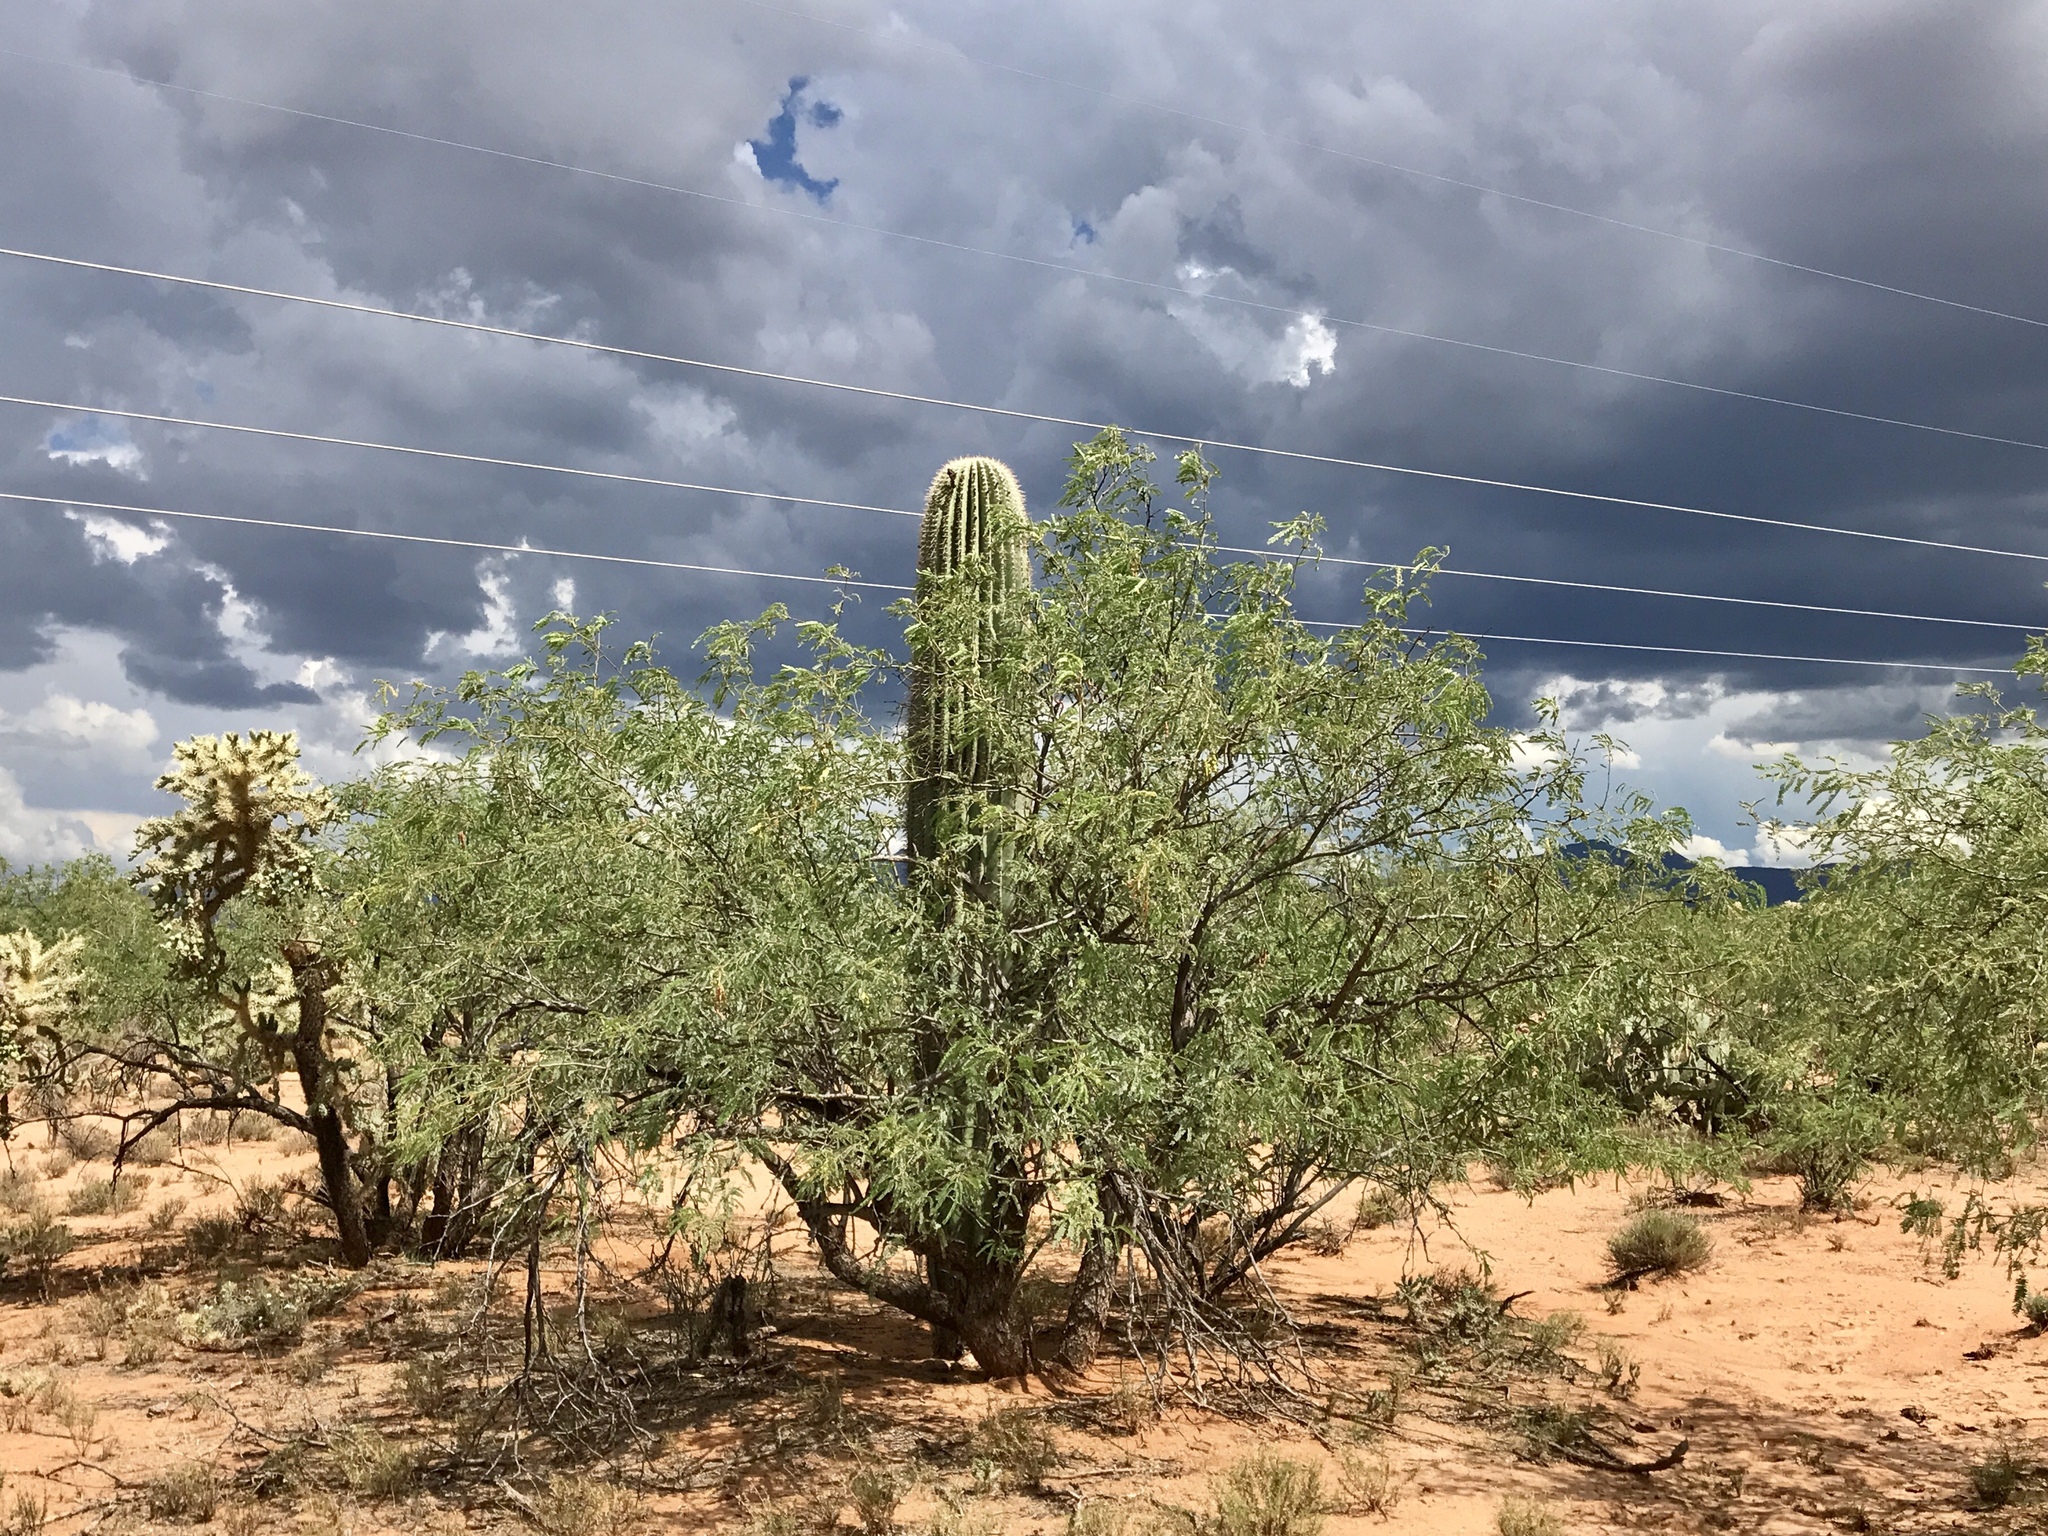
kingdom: Plantae
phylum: Tracheophyta
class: Magnoliopsida
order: Fabales
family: Fabaceae
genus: Prosopis
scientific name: Prosopis velutina
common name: Velvet mesquite
